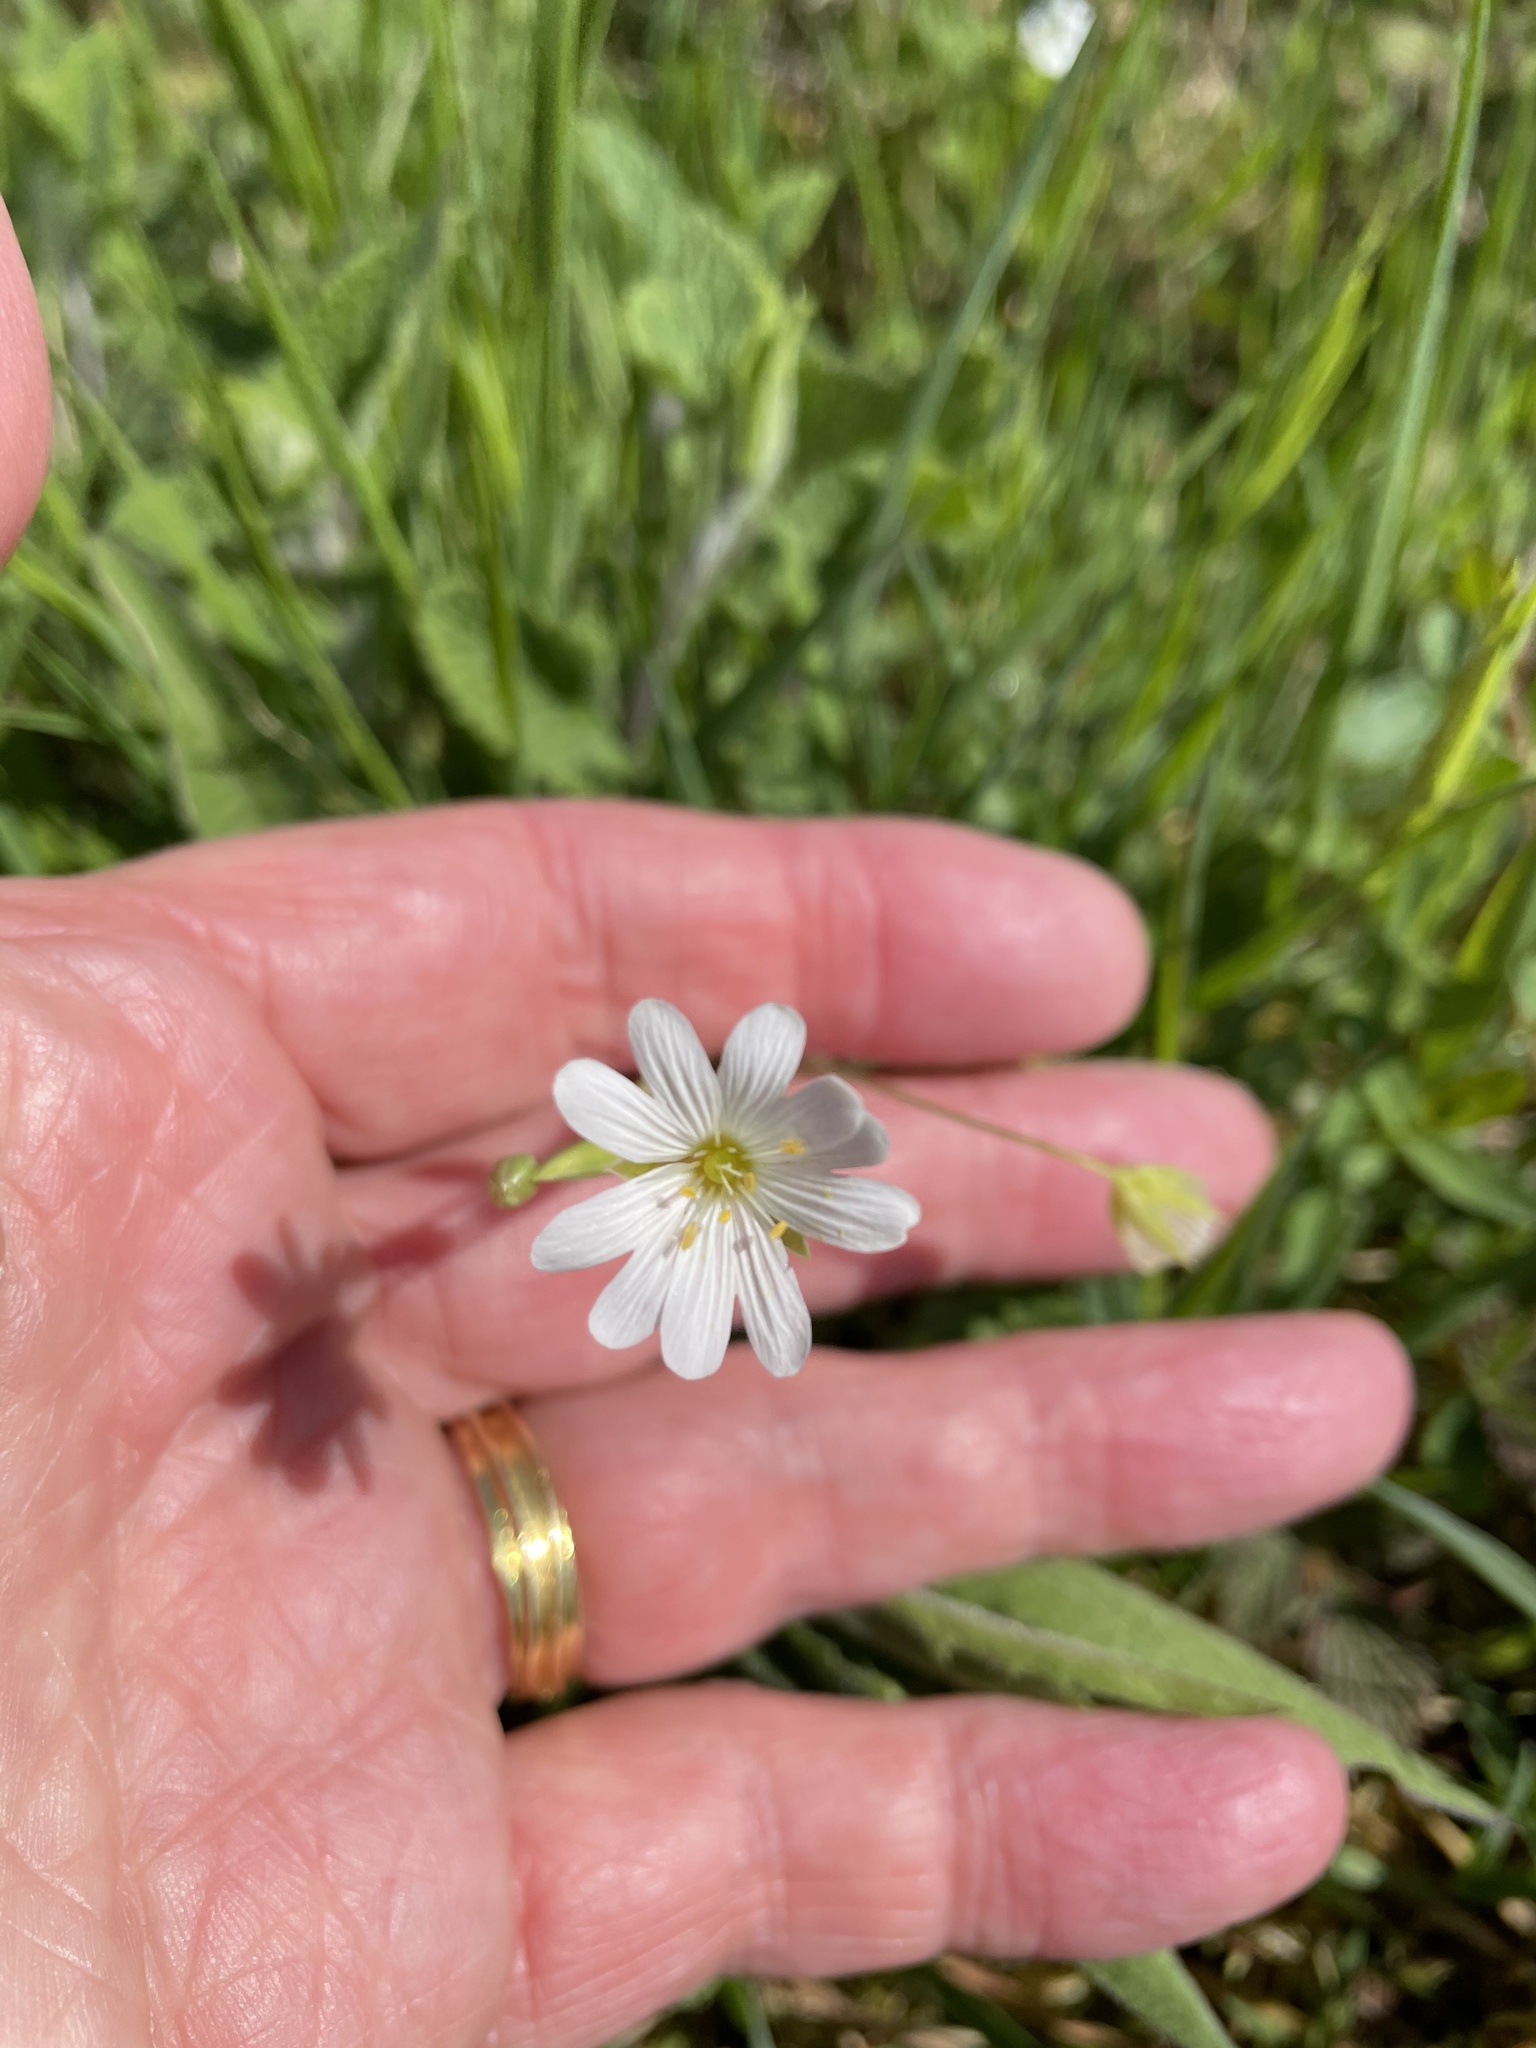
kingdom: Plantae
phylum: Tracheophyta
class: Magnoliopsida
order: Caryophyllales
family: Caryophyllaceae
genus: Rabelera
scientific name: Rabelera holostea
